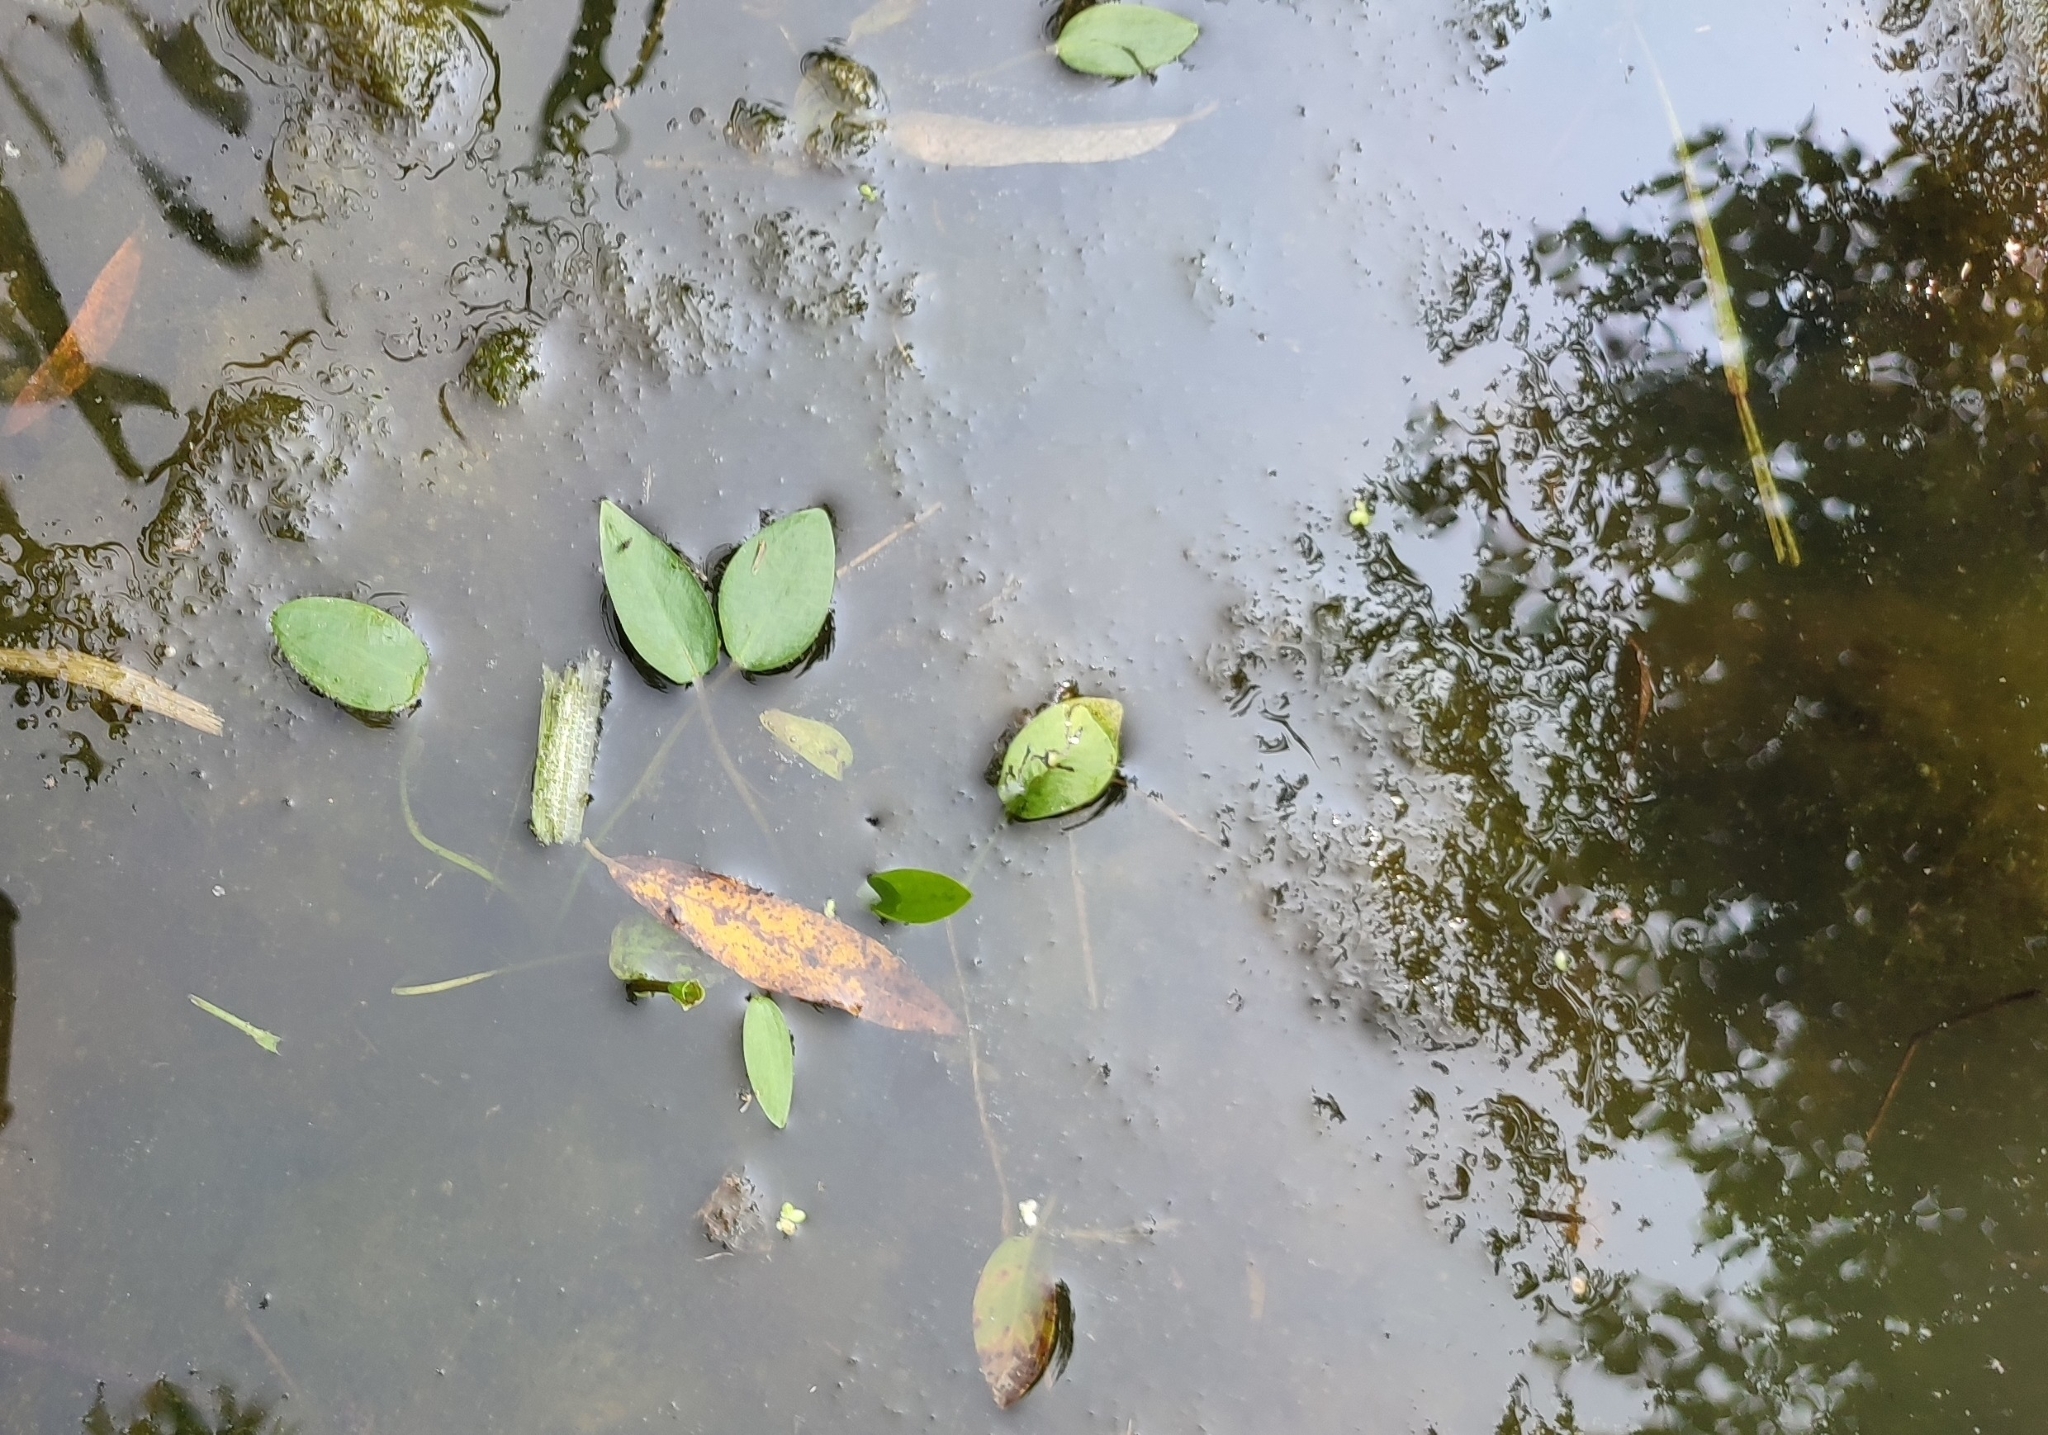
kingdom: Plantae
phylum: Tracheophyta
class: Liliopsida
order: Alismatales
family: Alismataceae
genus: Alisma
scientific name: Alisma plantago-aquatica
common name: Water-plantain
